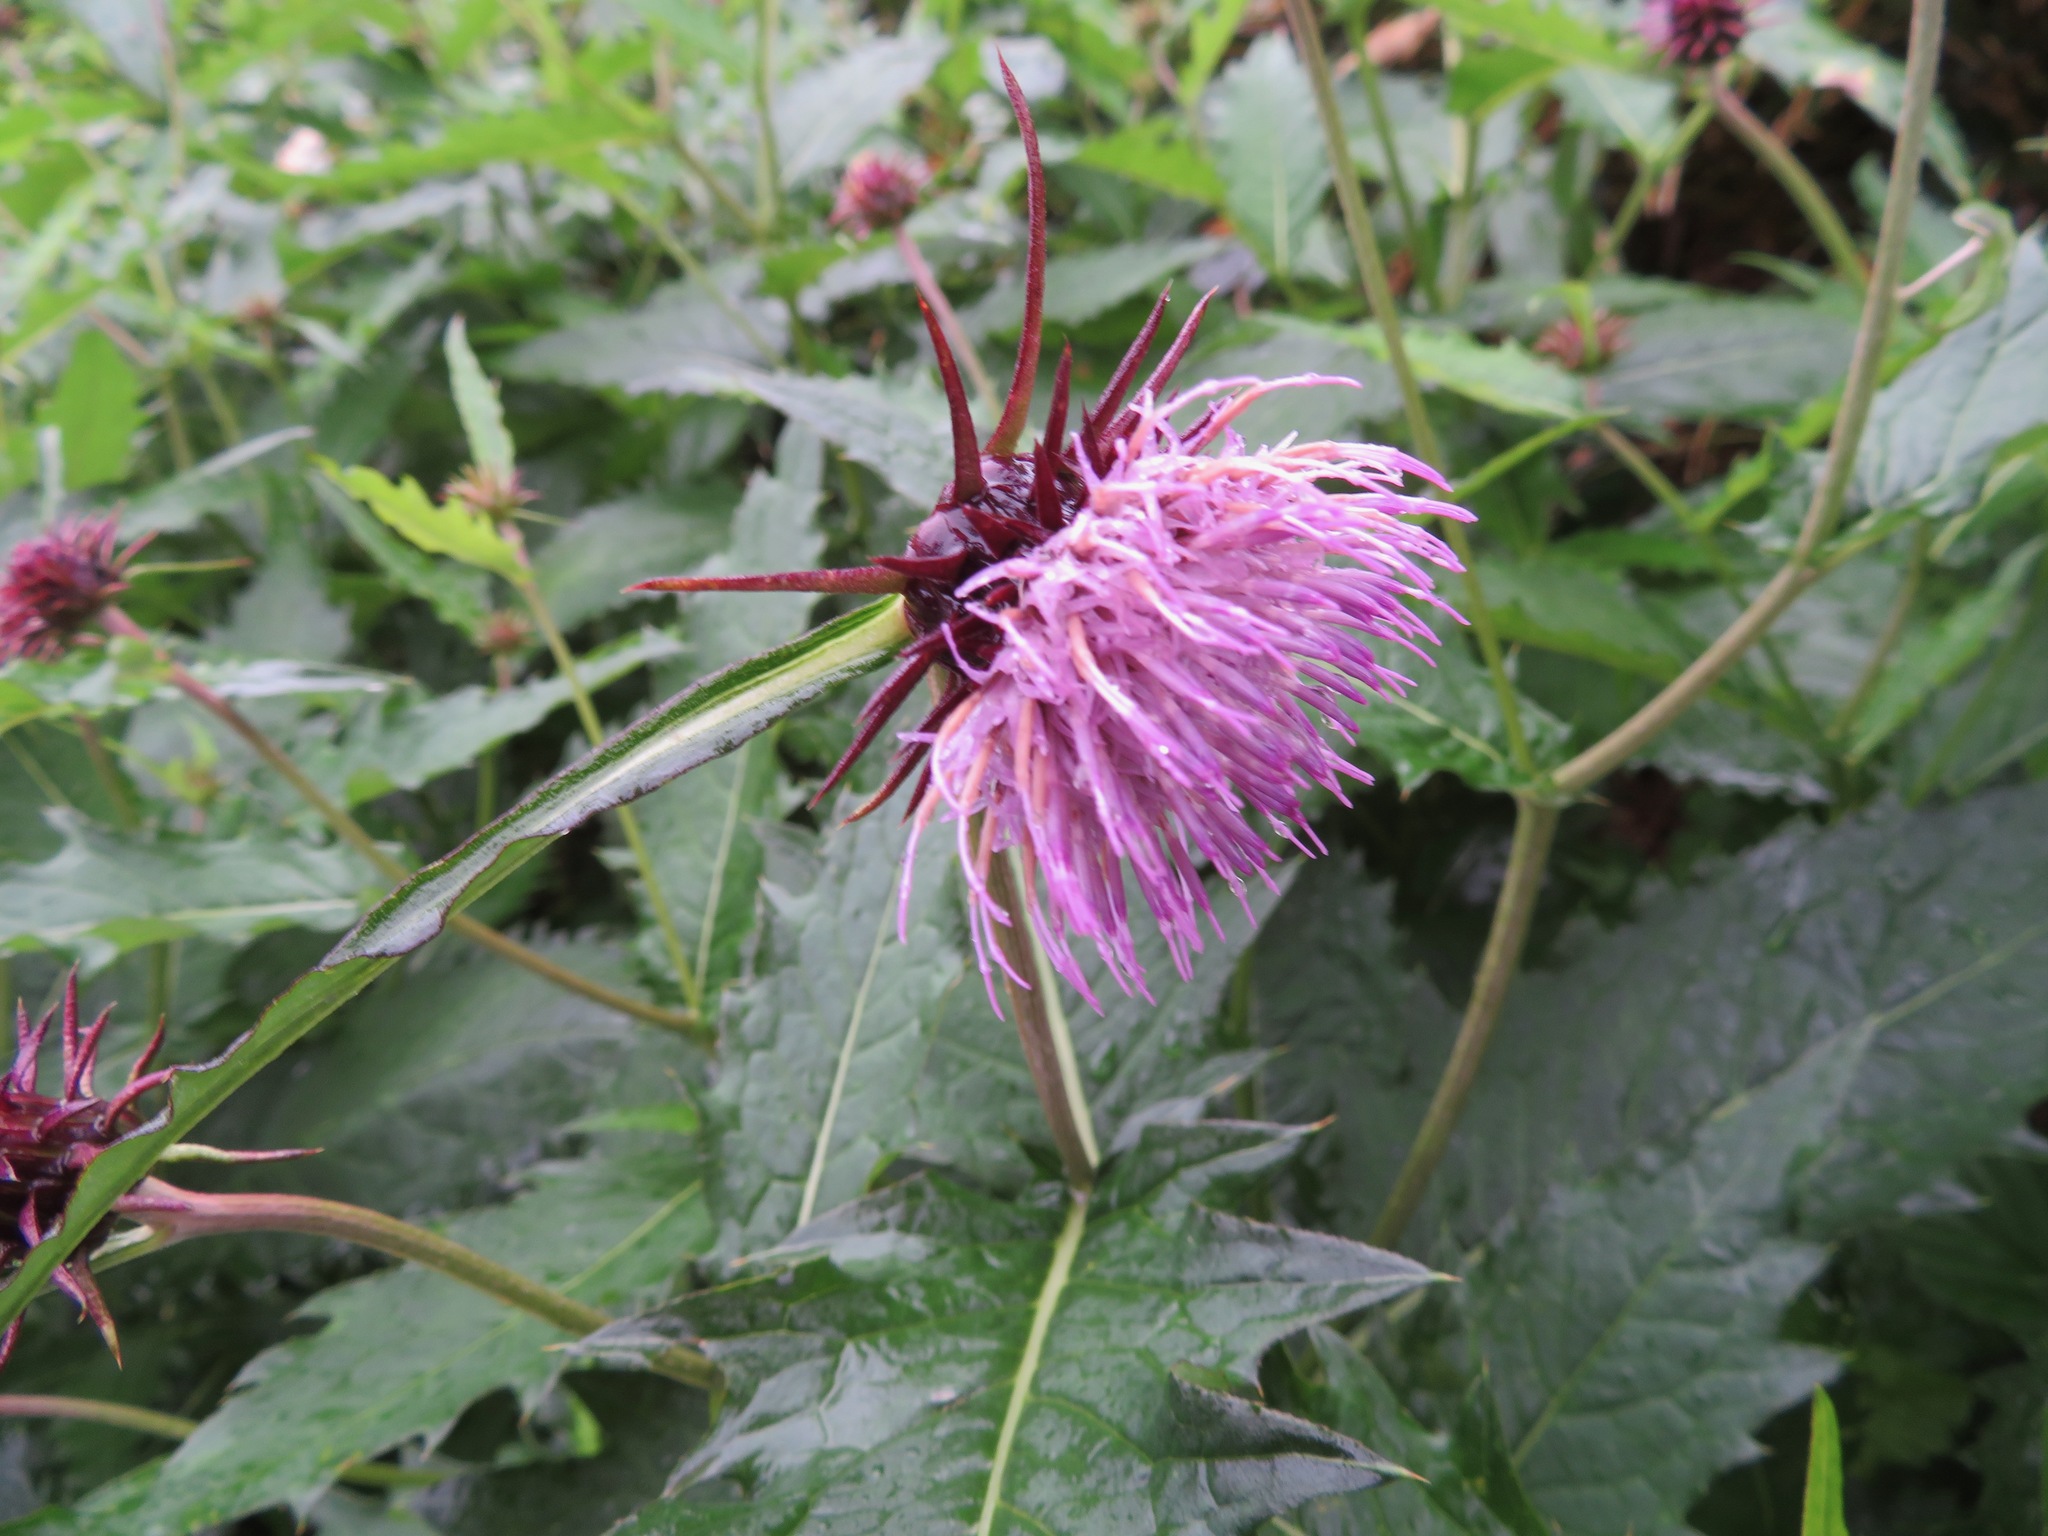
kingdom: Plantae
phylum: Tracheophyta
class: Magnoliopsida
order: Asterales
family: Asteraceae
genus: Cirsium
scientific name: Cirsium otayae
